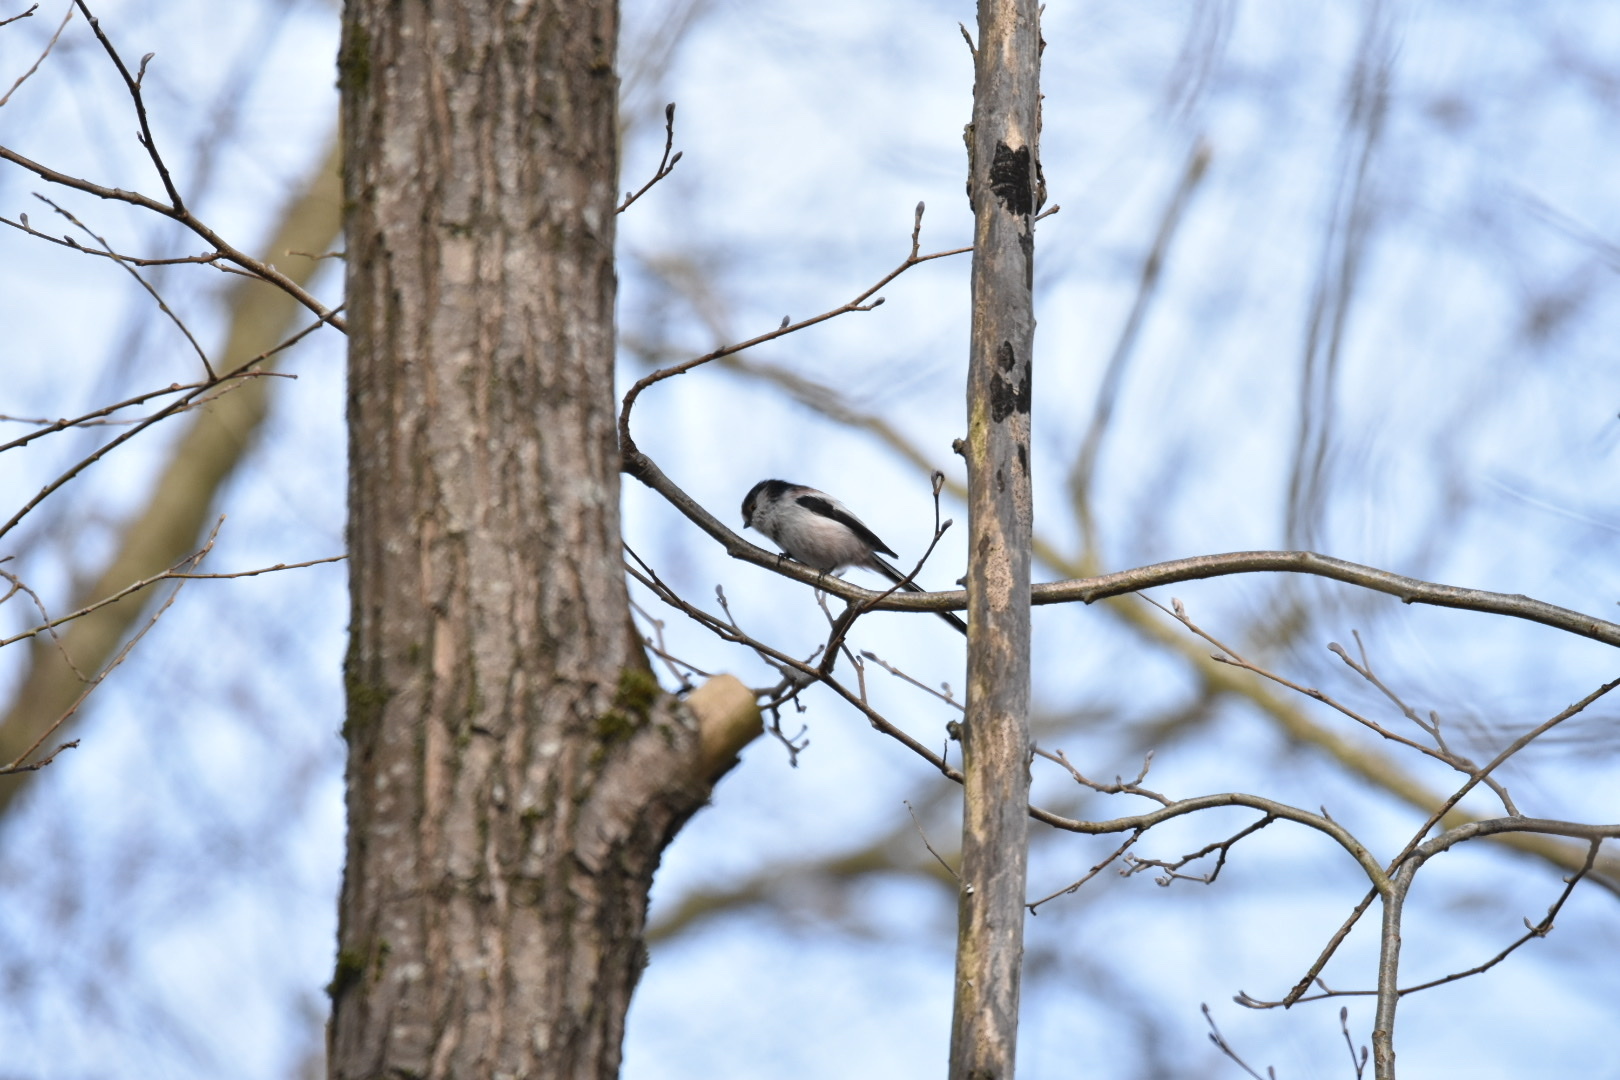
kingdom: Animalia
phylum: Chordata
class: Aves
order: Passeriformes
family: Aegithalidae
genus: Aegithalos
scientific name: Aegithalos caudatus
